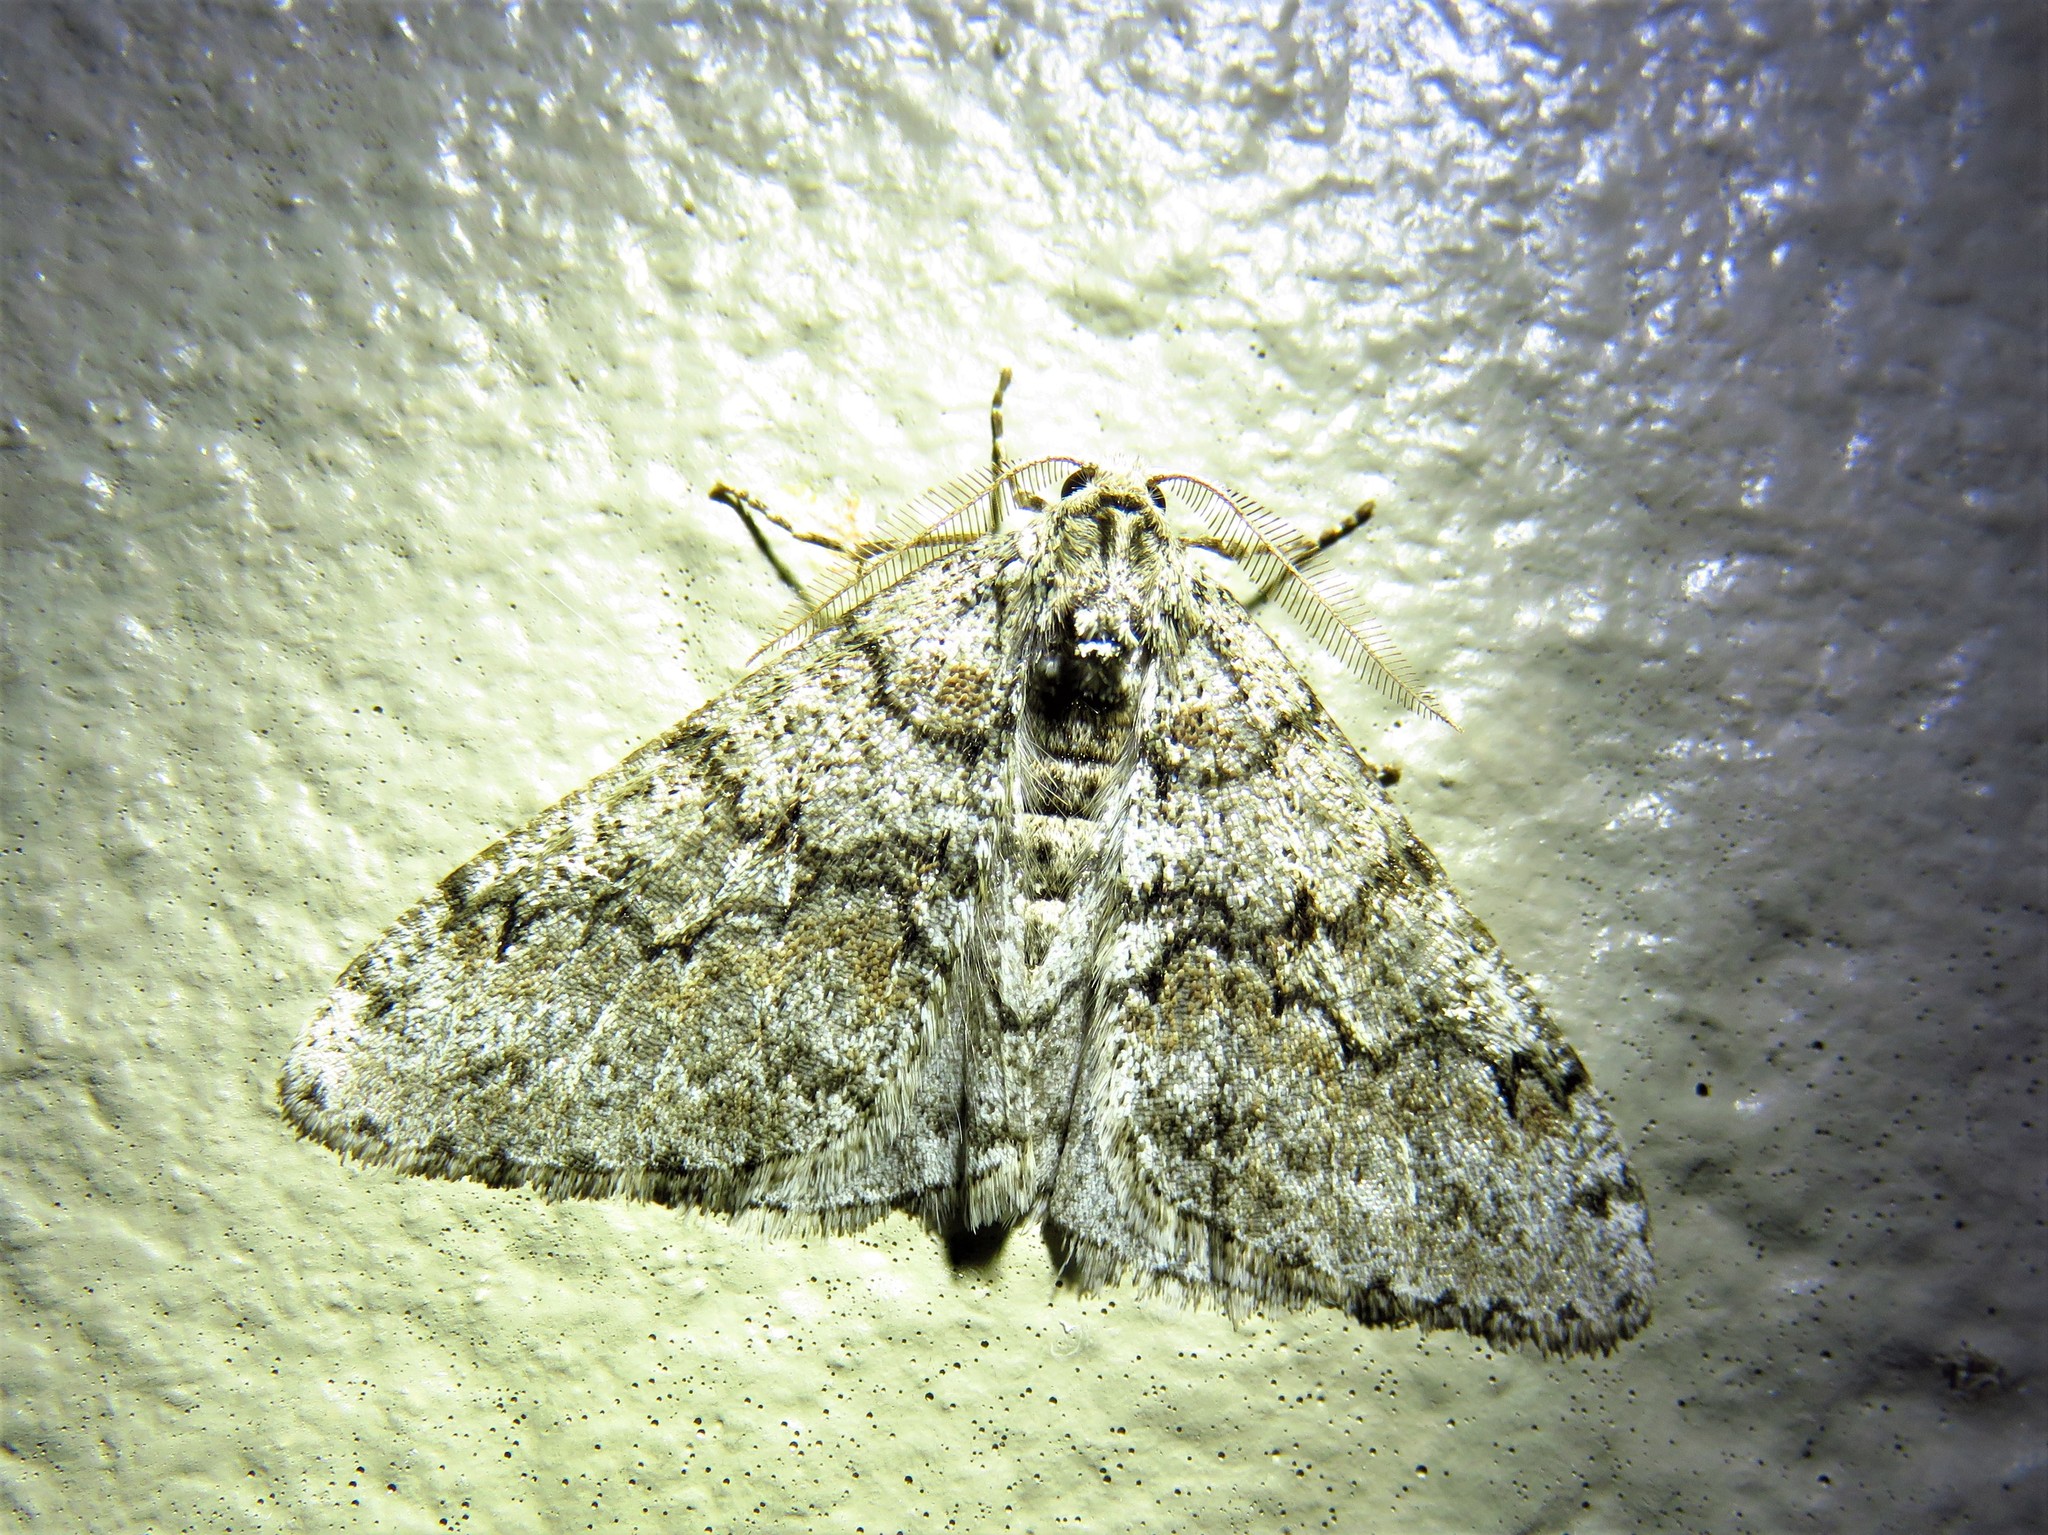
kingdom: Animalia
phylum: Arthropoda
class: Insecta
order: Lepidoptera
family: Geometridae
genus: Phigalia
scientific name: Phigalia denticulata
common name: Toothed phigalia
